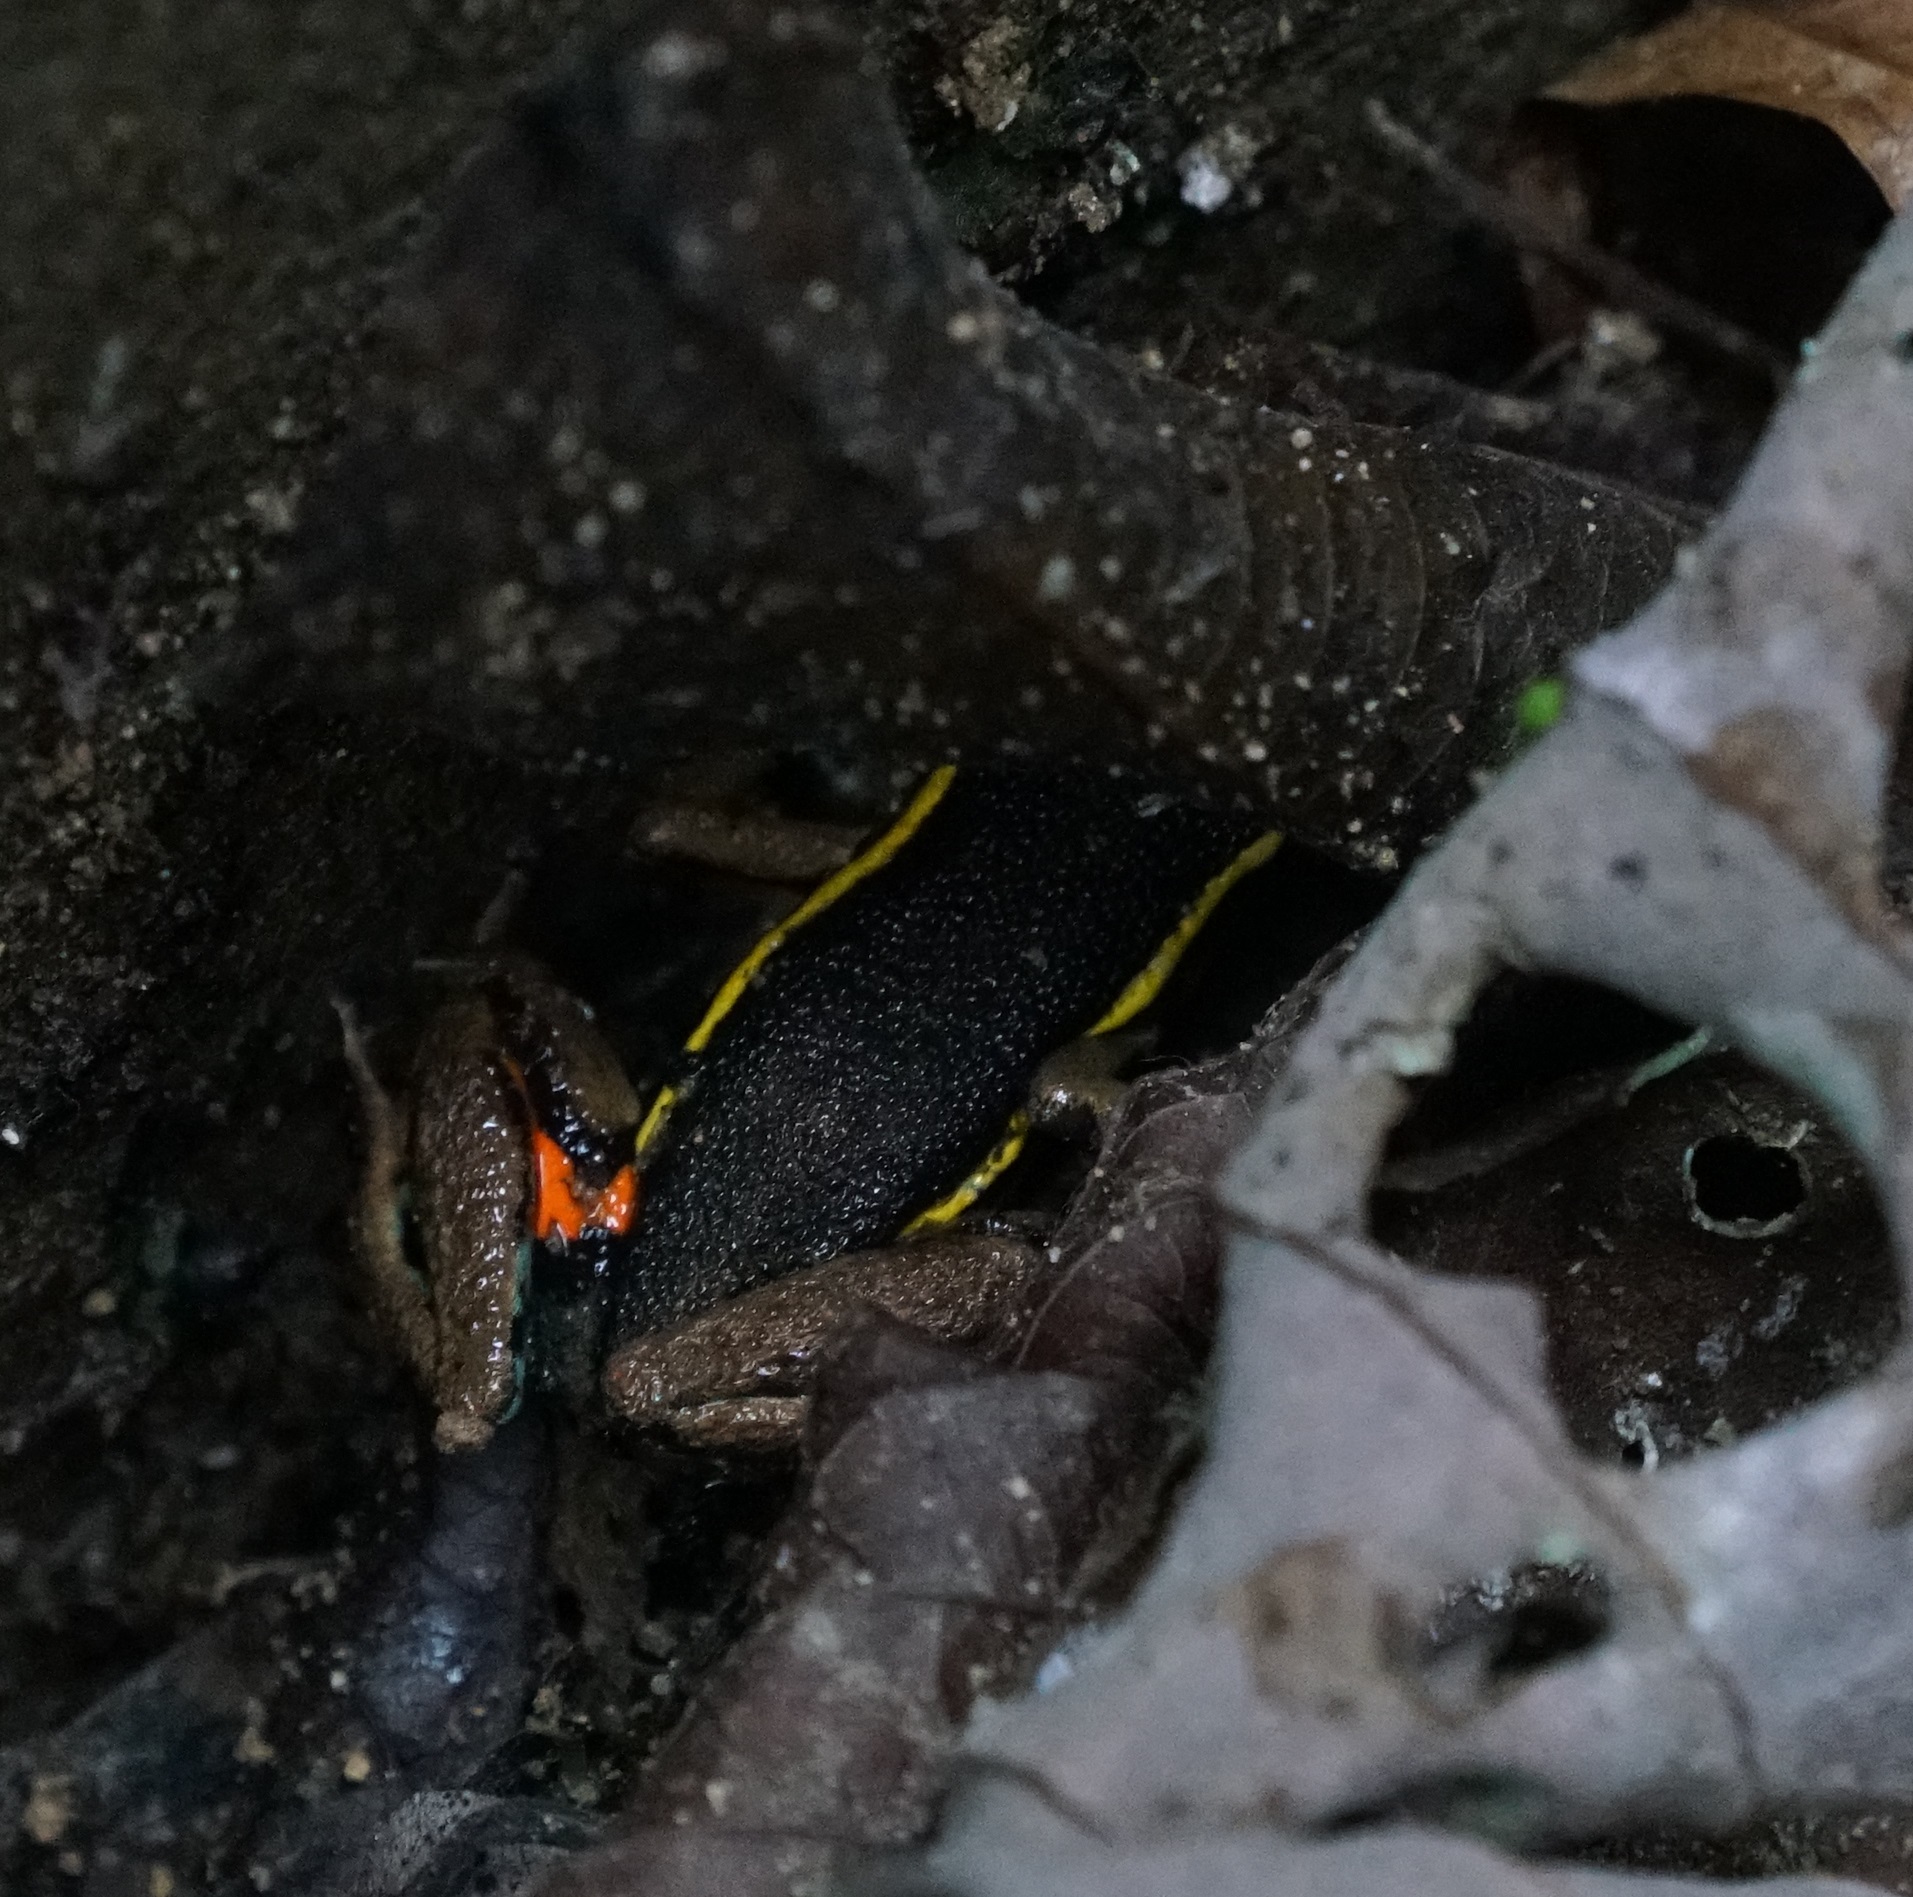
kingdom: Animalia
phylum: Chordata
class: Amphibia
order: Anura
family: Dendrobatidae
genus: Ameerega
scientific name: Ameerega picta
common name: Spot-legged poison frog
